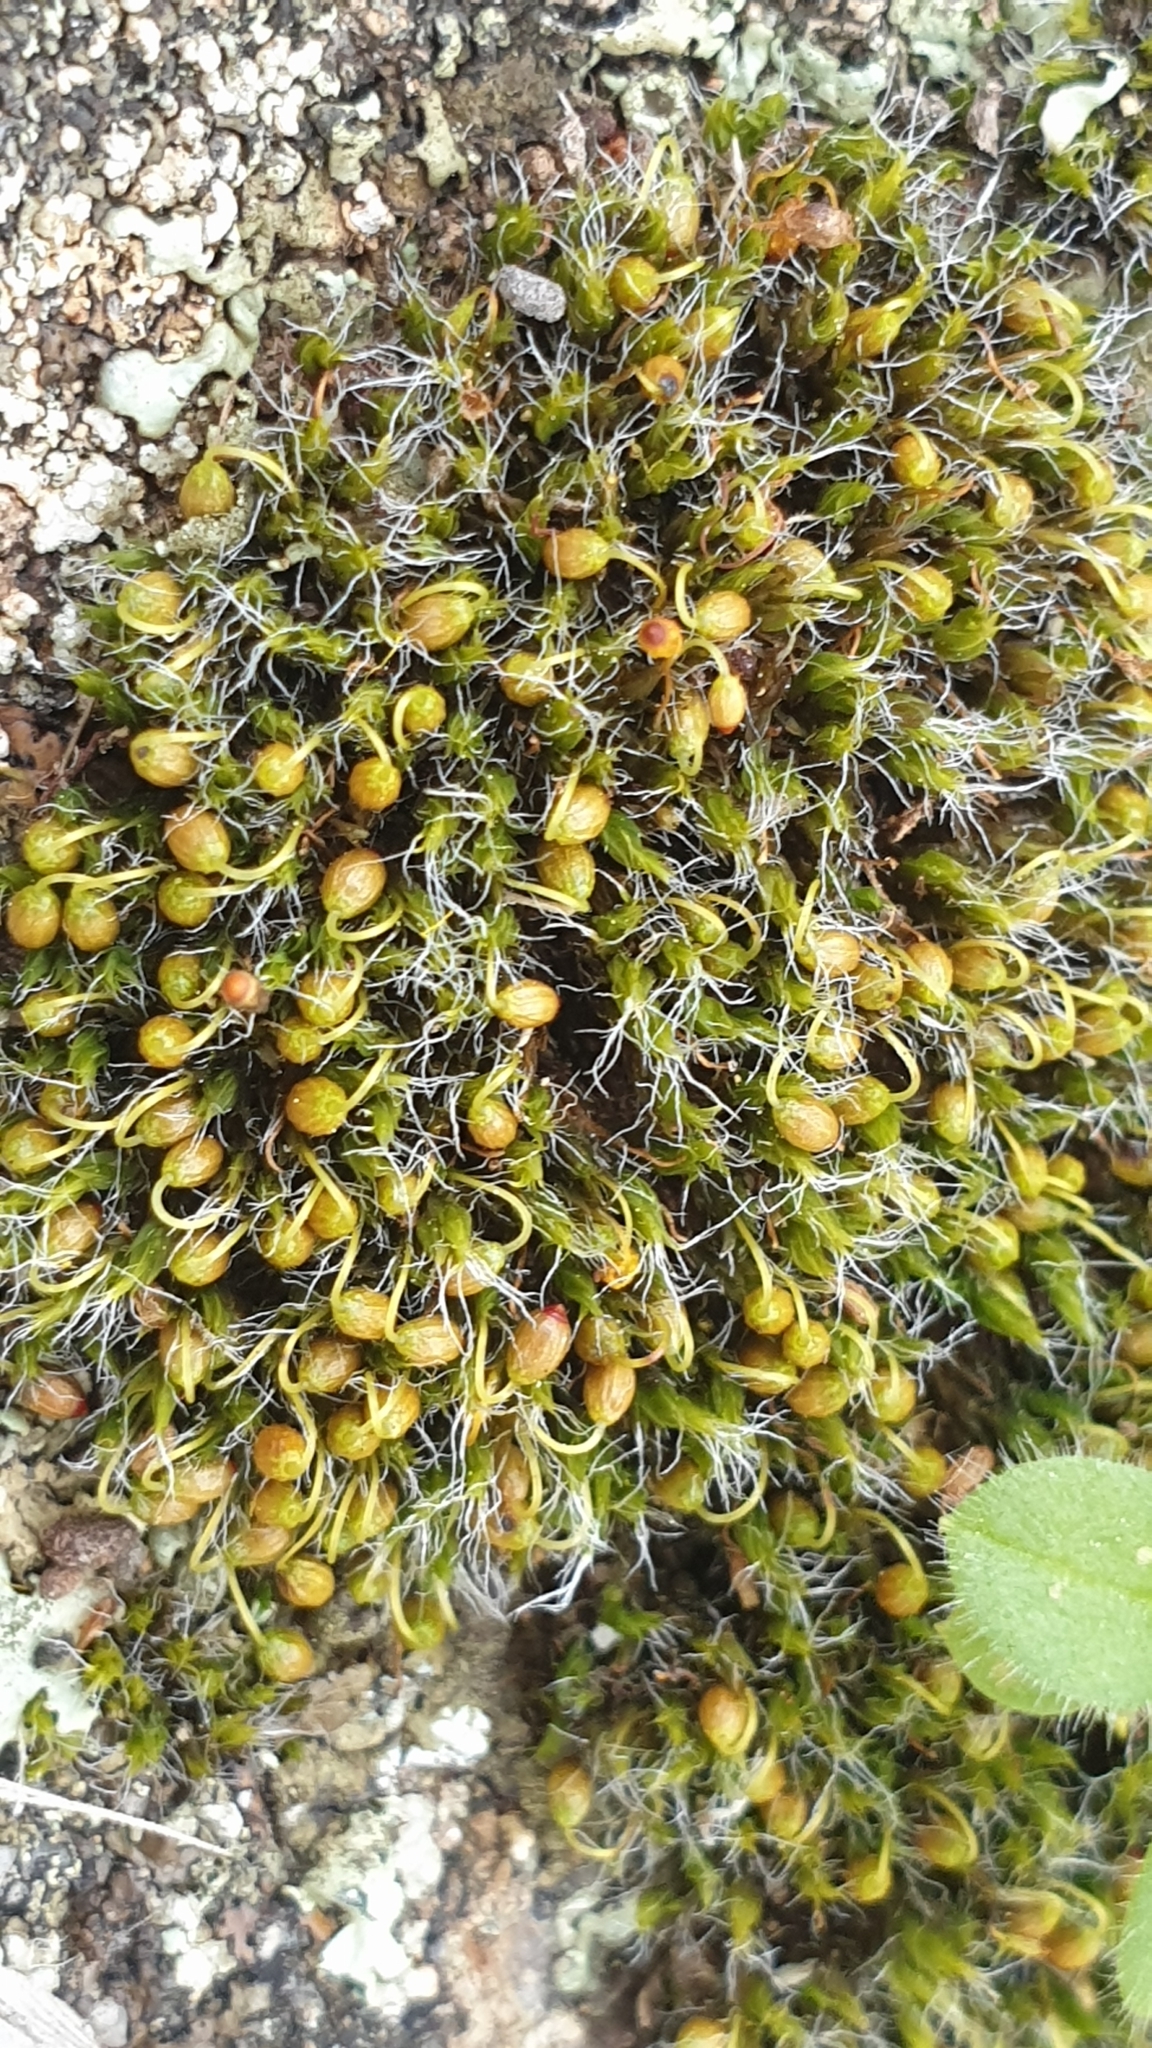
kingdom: Plantae
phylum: Bryophyta
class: Bryopsida
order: Grimmiales
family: Grimmiaceae
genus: Grimmia
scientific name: Grimmia pulvinata
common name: Grey-cushioned grimmia
